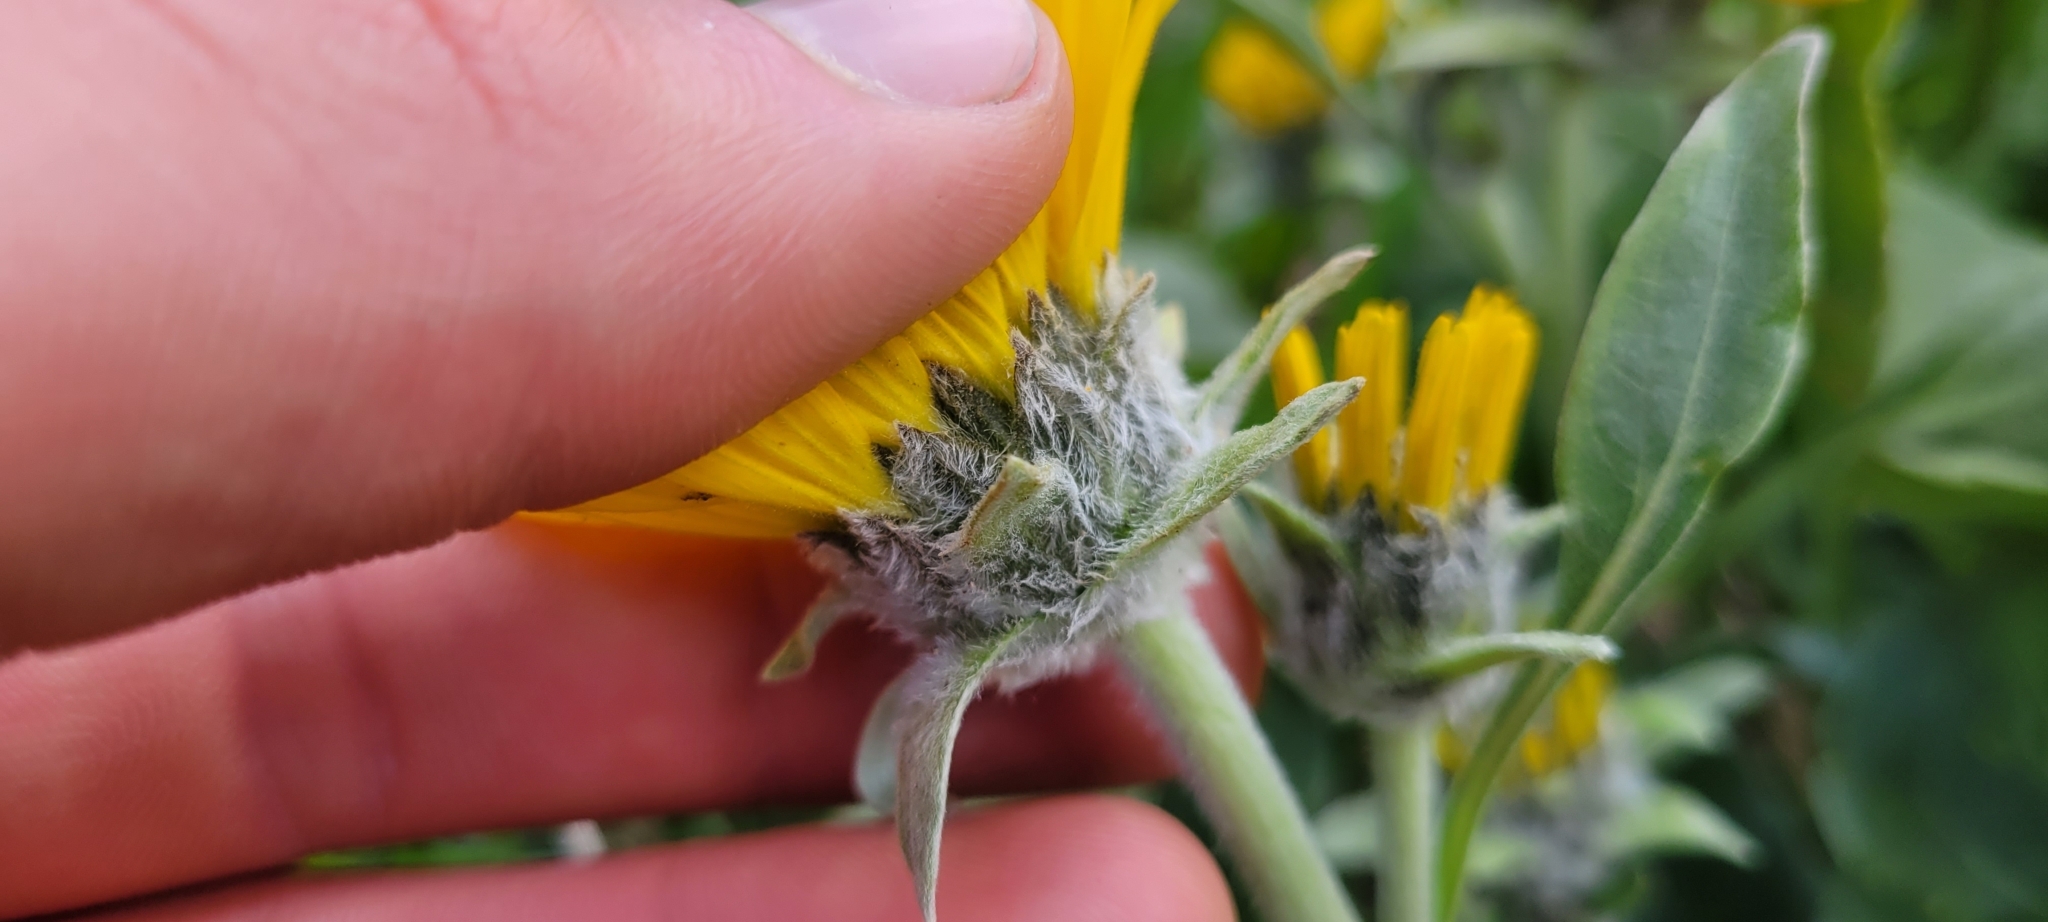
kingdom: Plantae
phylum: Tracheophyta
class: Magnoliopsida
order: Asterales
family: Asteraceae
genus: Wyethia
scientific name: Wyethia sagittata
